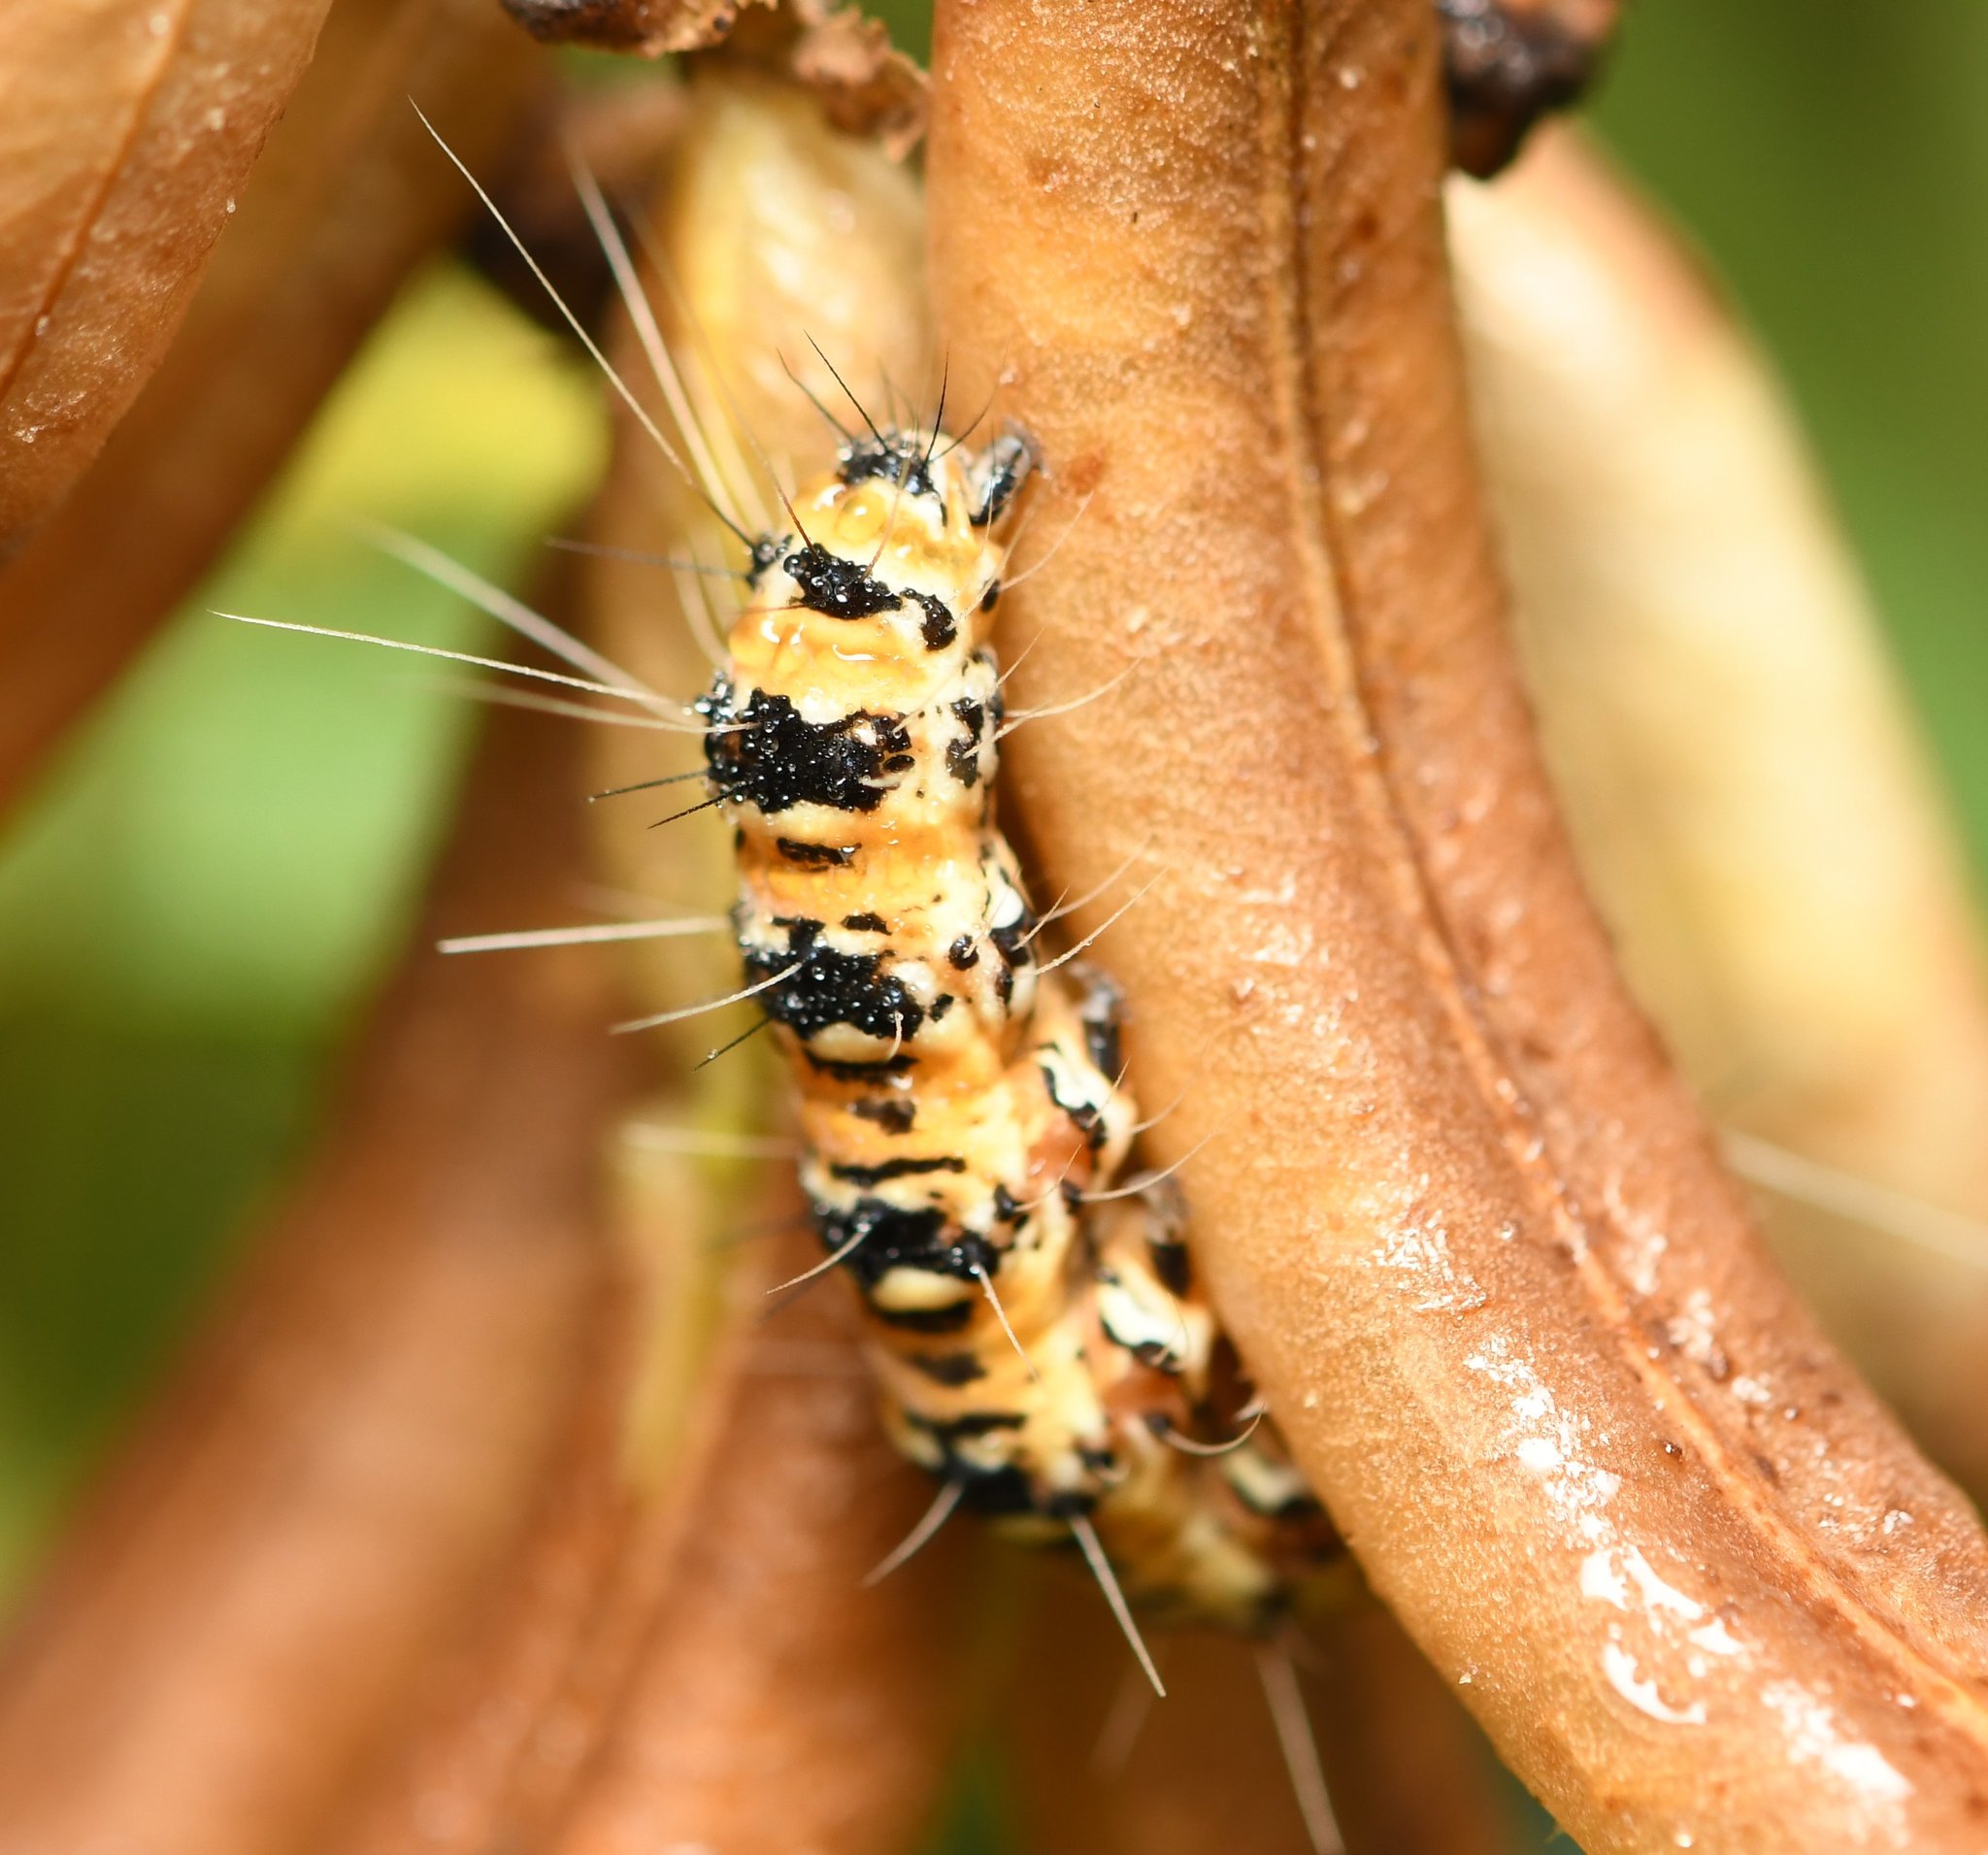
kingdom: Animalia
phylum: Arthropoda
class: Insecta
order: Lepidoptera
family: Erebidae
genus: Utetheisa
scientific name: Utetheisa ornatrix
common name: Beautiful utetheisa
